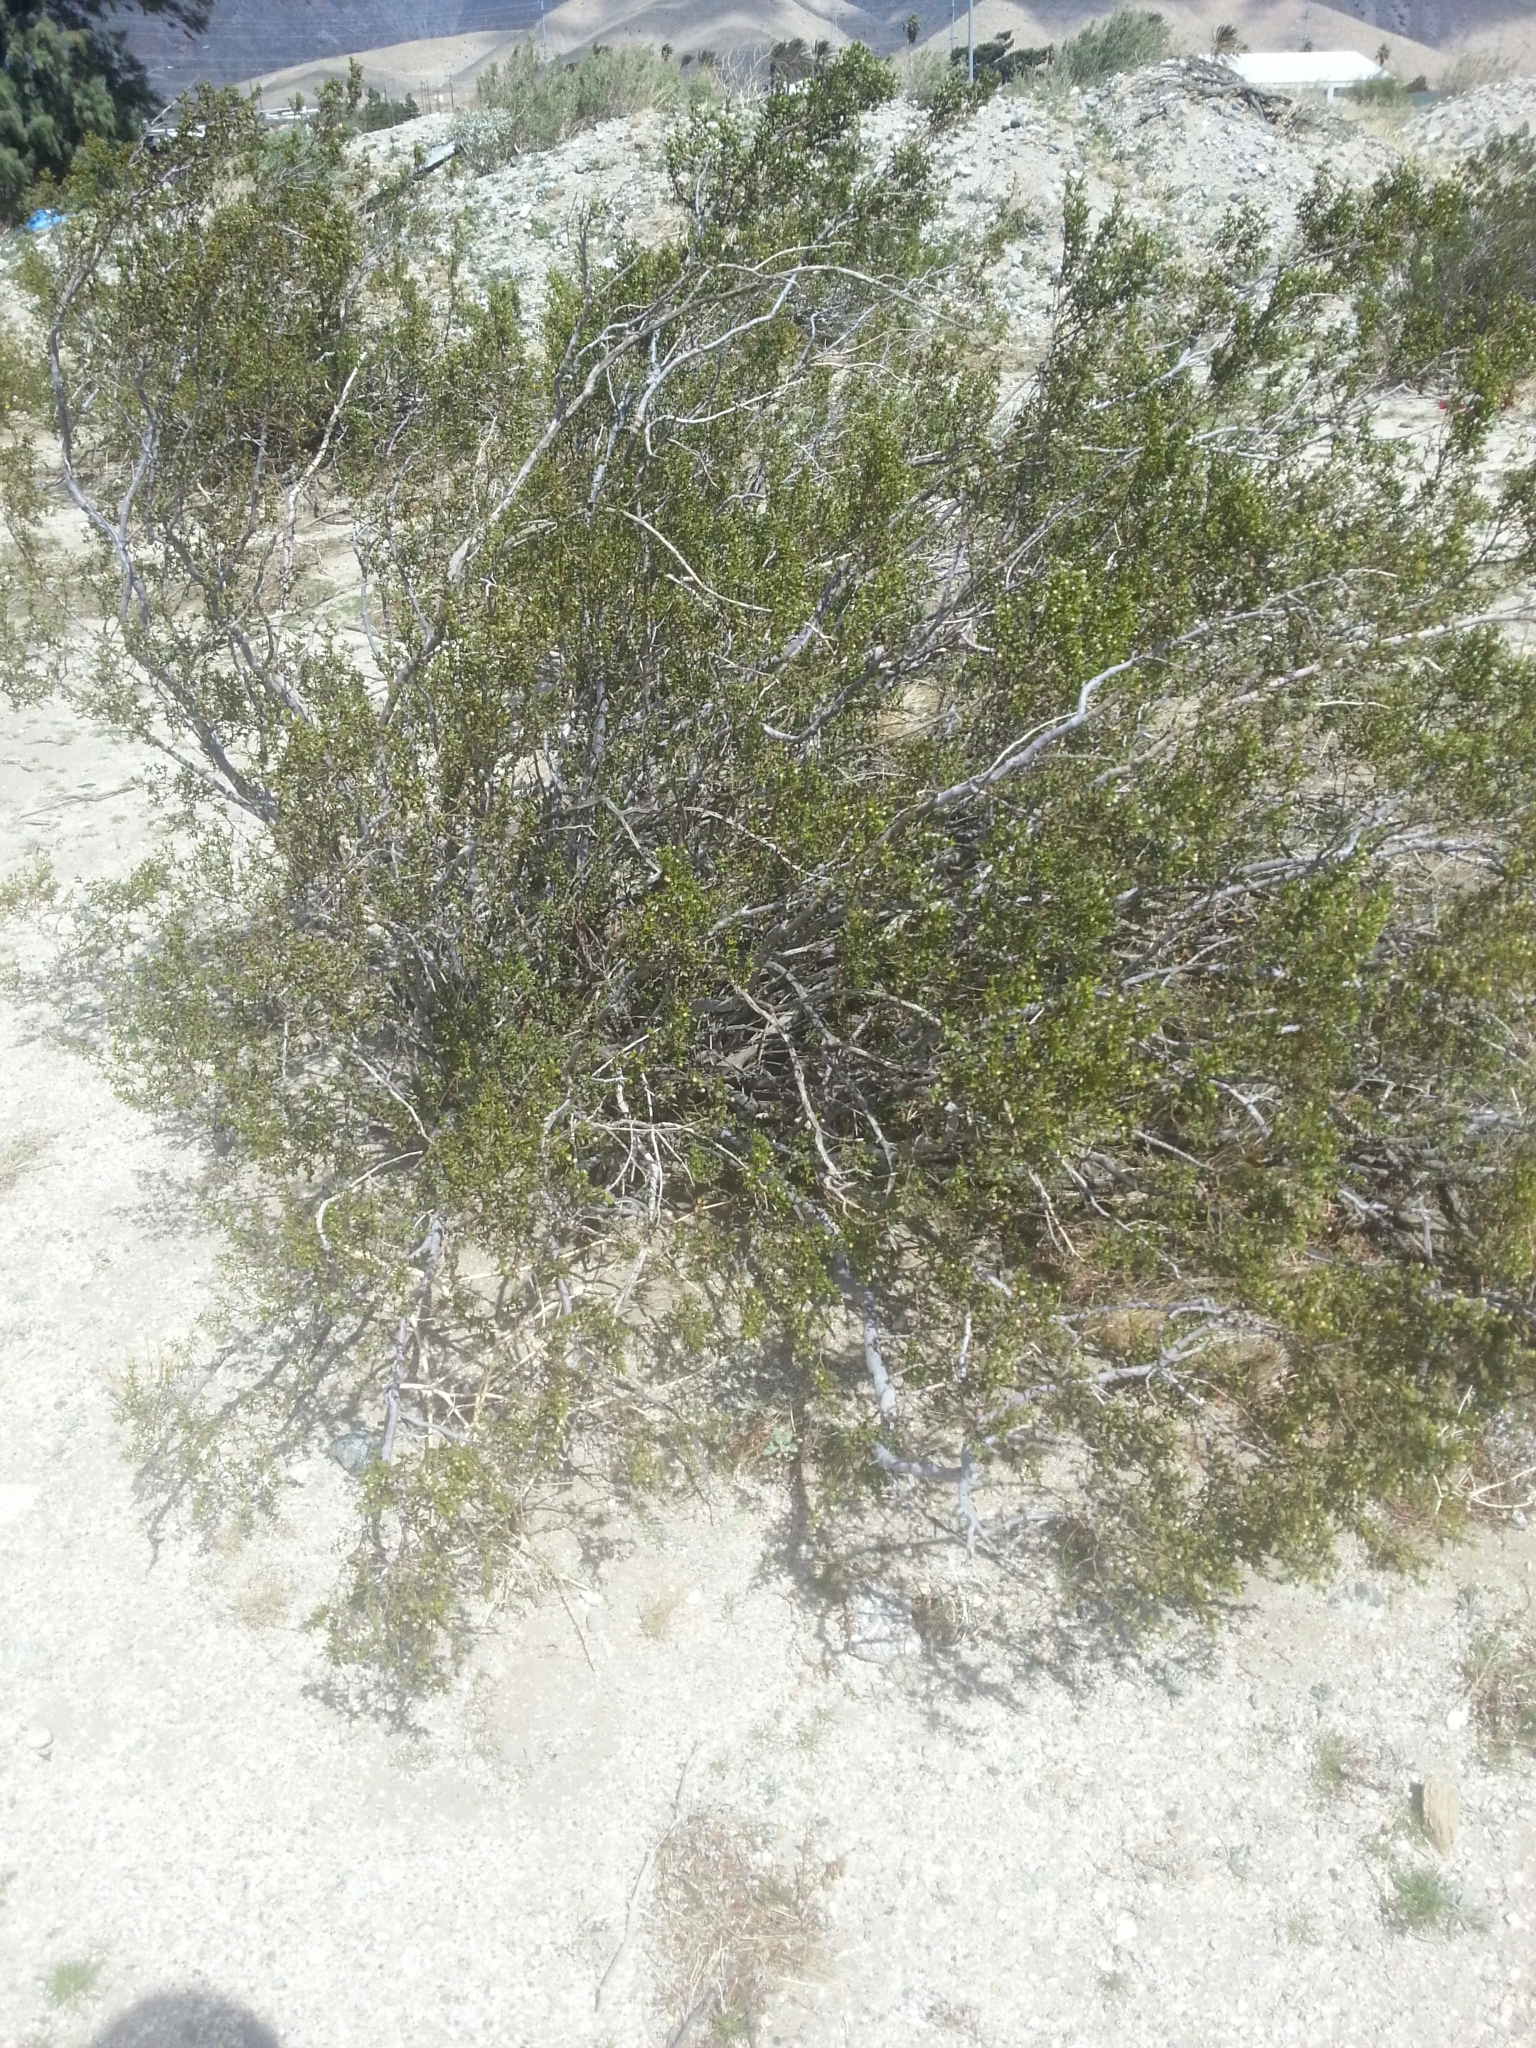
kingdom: Plantae
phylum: Tracheophyta
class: Magnoliopsida
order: Zygophyllales
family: Zygophyllaceae
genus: Larrea
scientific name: Larrea tridentata
